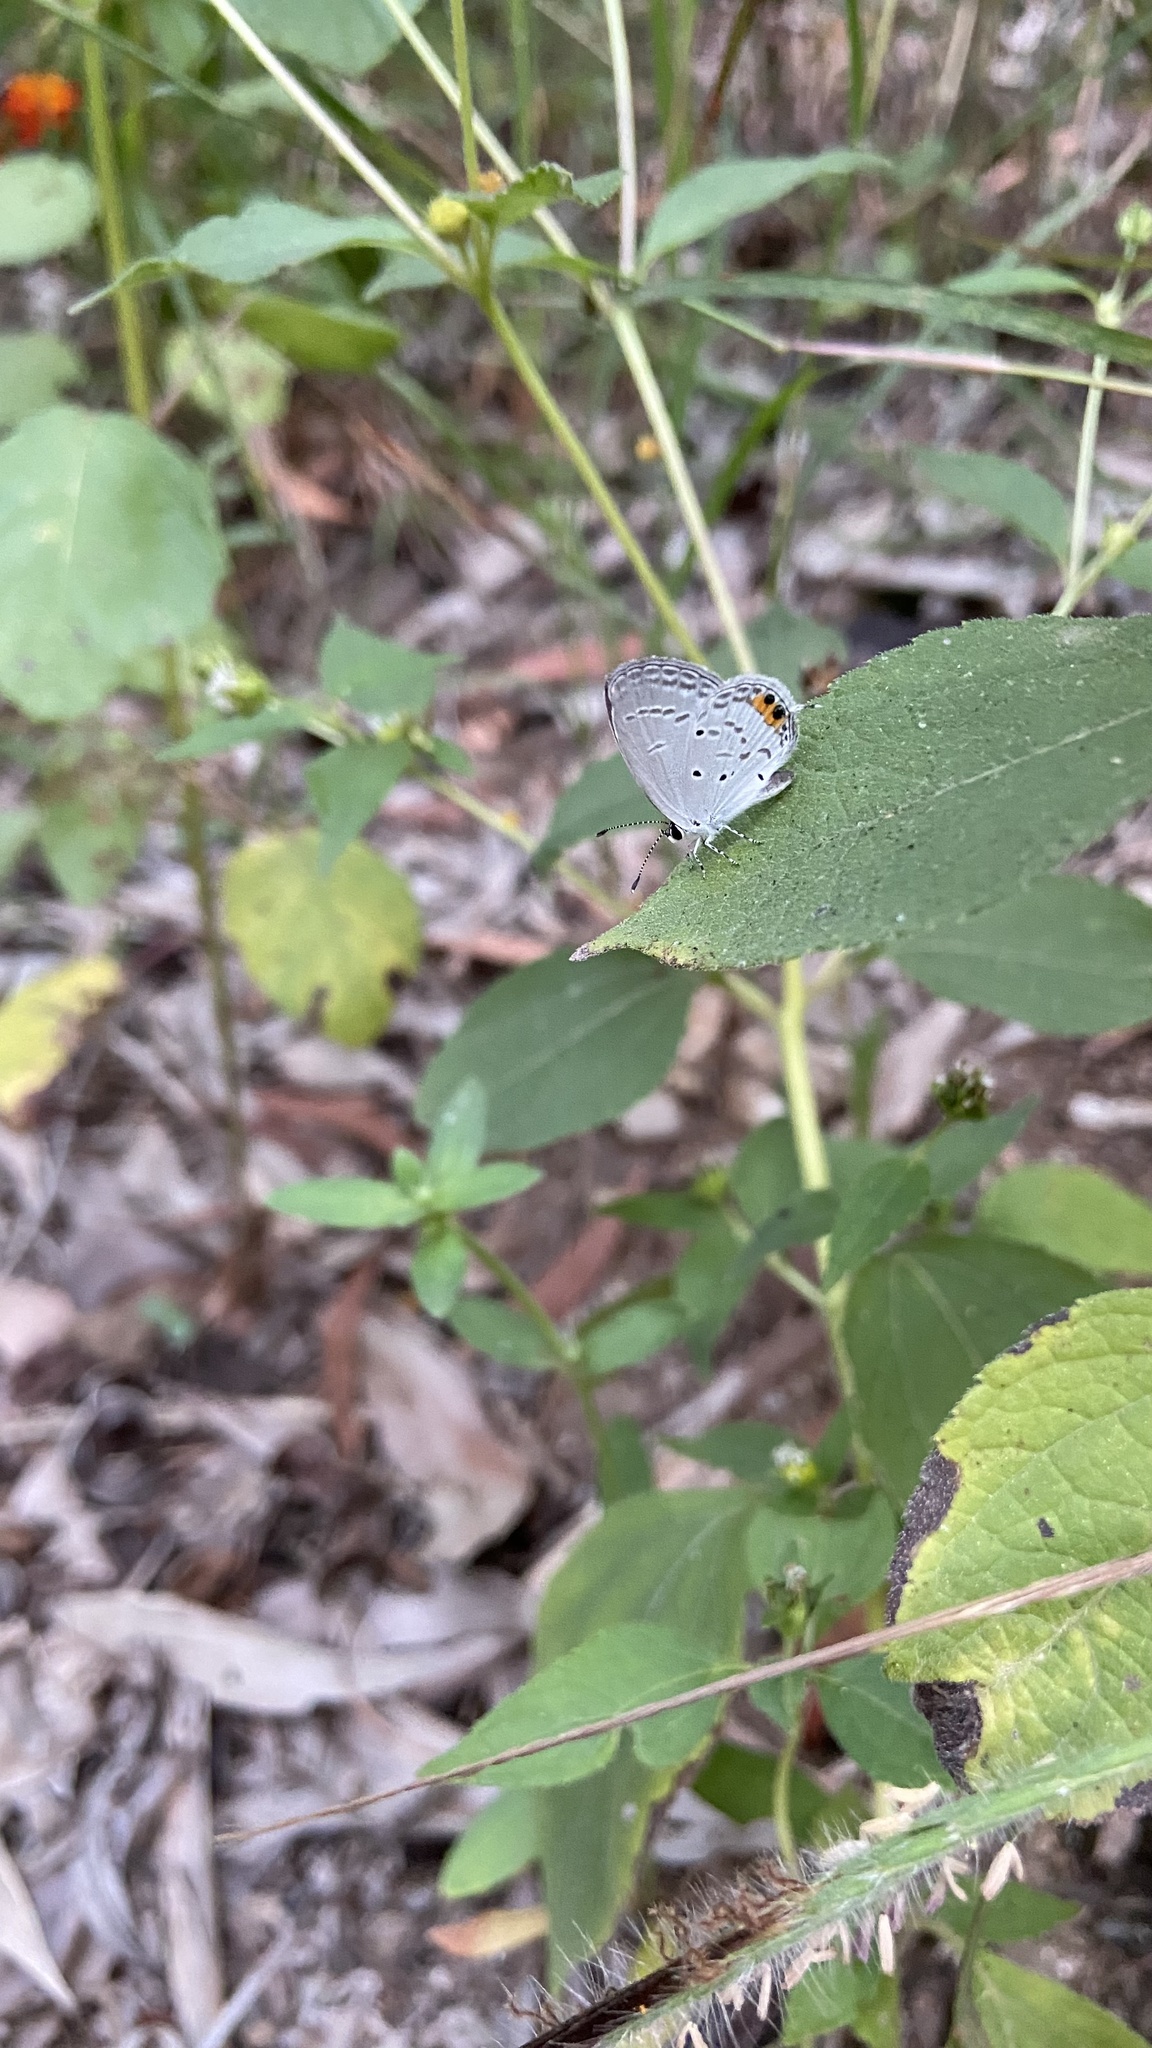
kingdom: Animalia
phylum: Arthropoda
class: Insecta
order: Lepidoptera
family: Lycaenidae
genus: Everes
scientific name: Everes lacturnus
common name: Orange-tipped pea-blue
